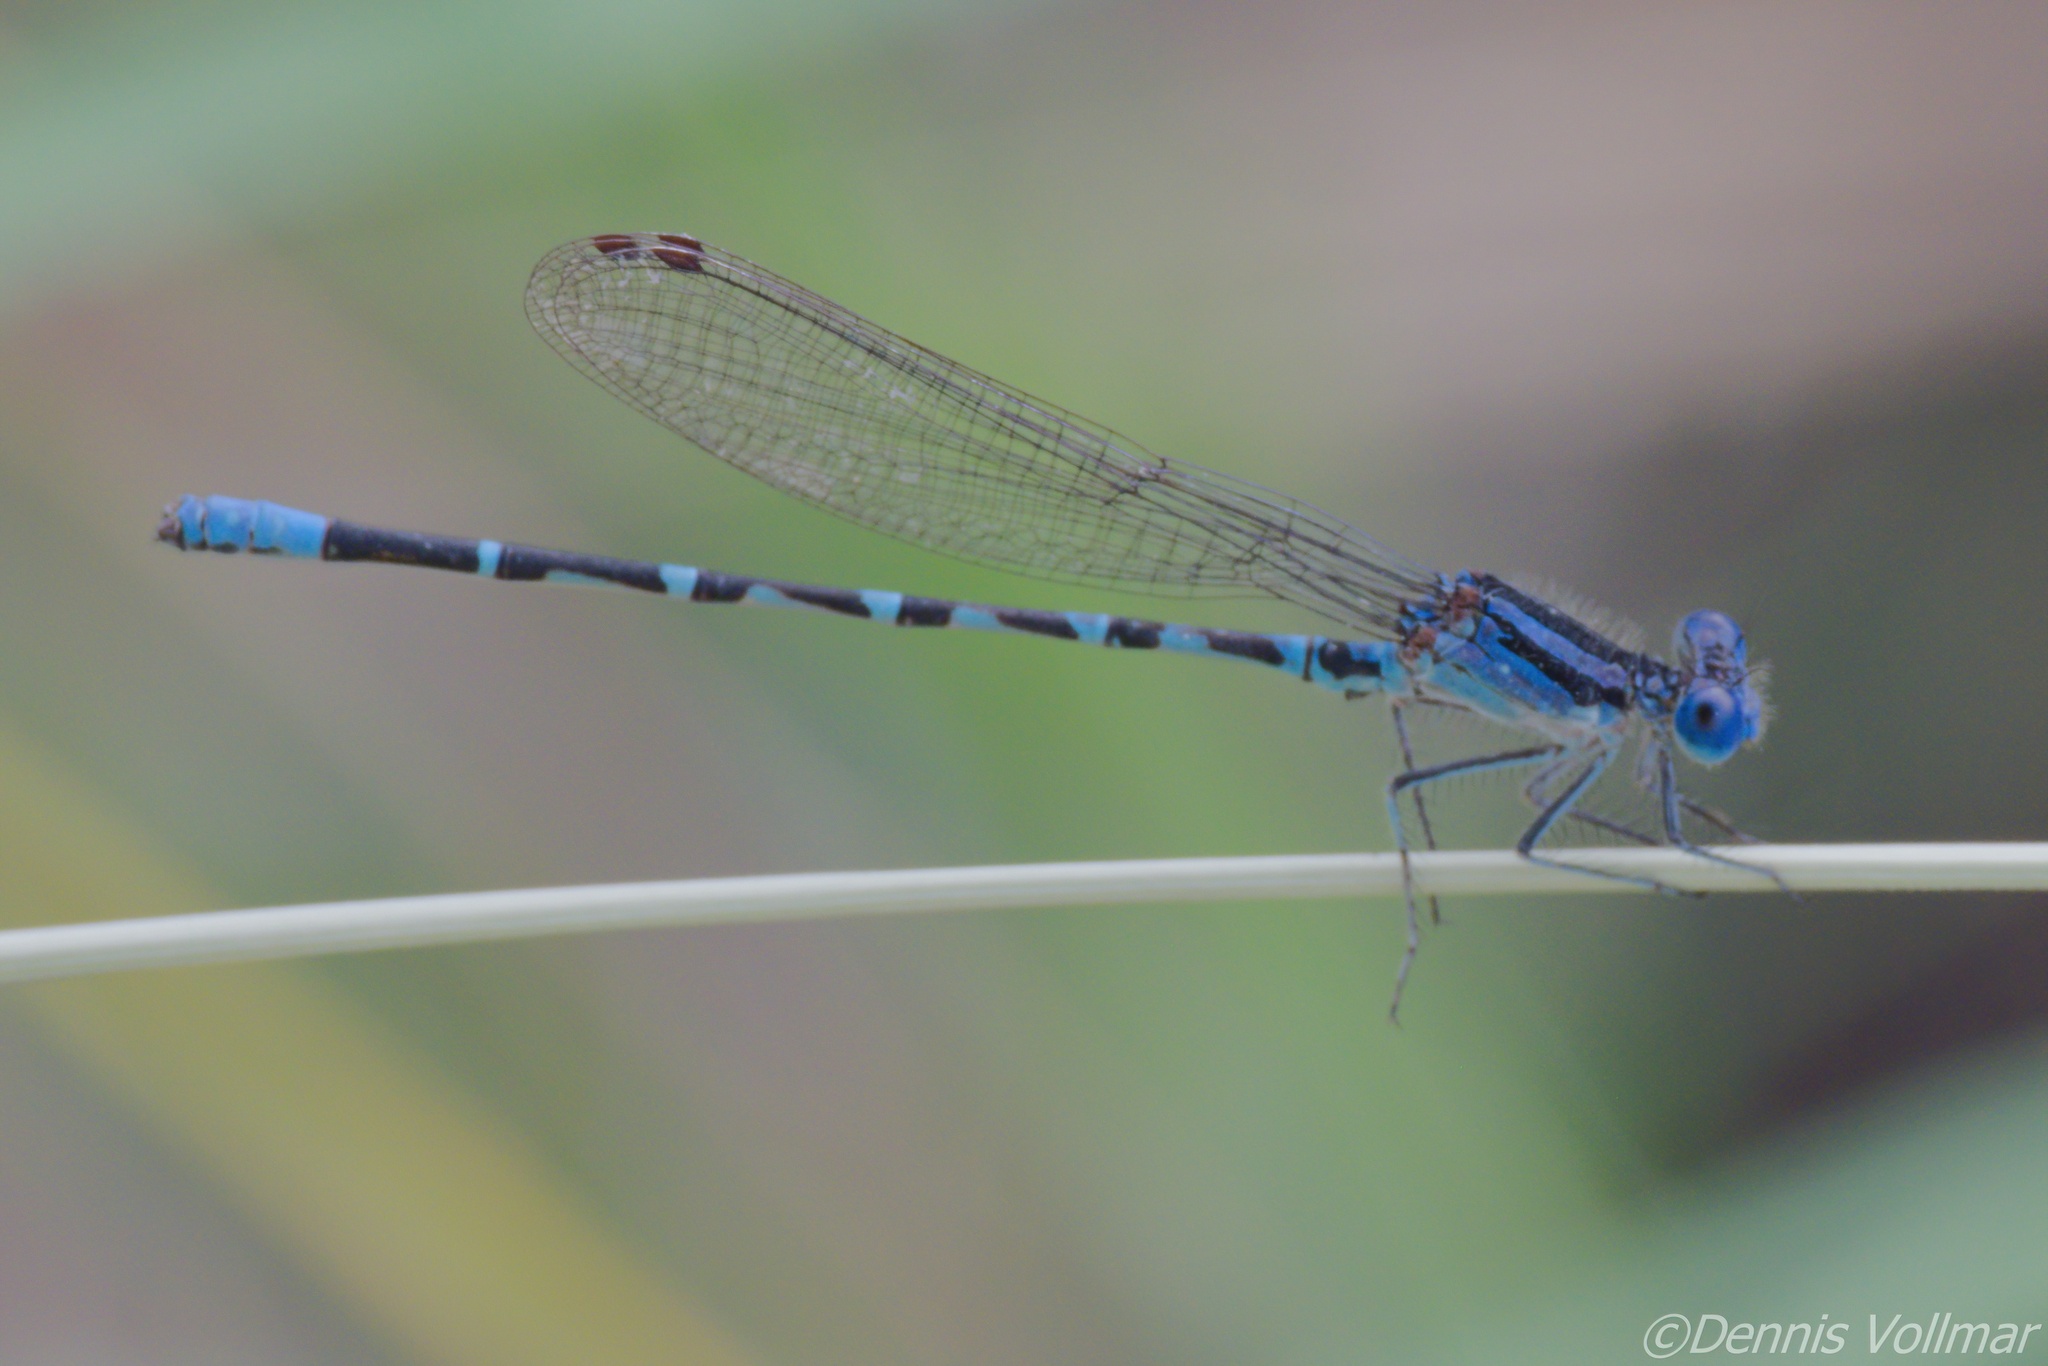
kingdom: Animalia
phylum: Arthropoda
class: Insecta
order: Odonata
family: Coenagrionidae
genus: Argia
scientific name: Argia sedula
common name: Blue-ringed dancer
